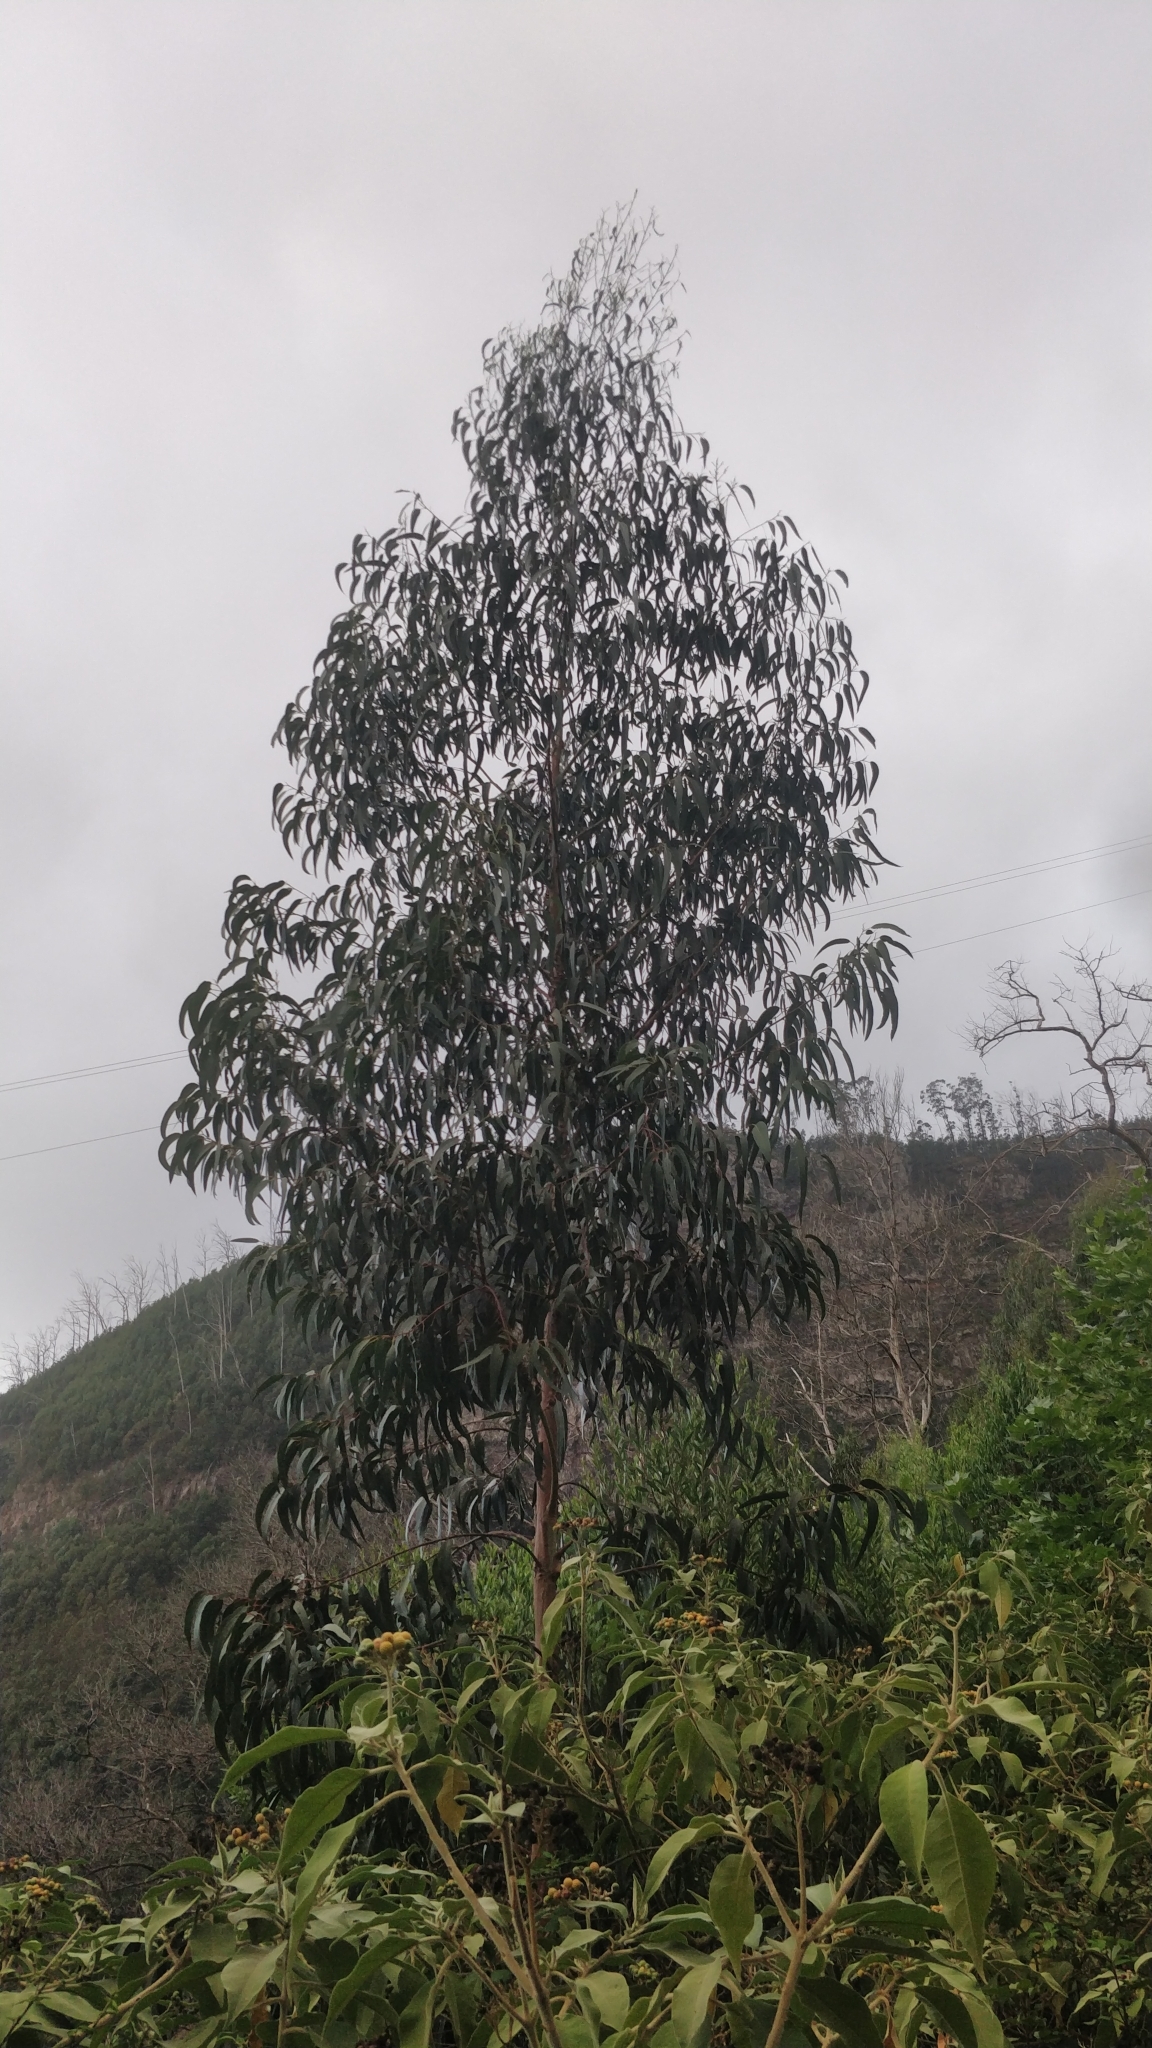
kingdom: Plantae
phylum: Tracheophyta
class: Magnoliopsida
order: Myrtales
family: Myrtaceae
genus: Eucalyptus
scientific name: Eucalyptus globulus
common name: Southern blue-gum
